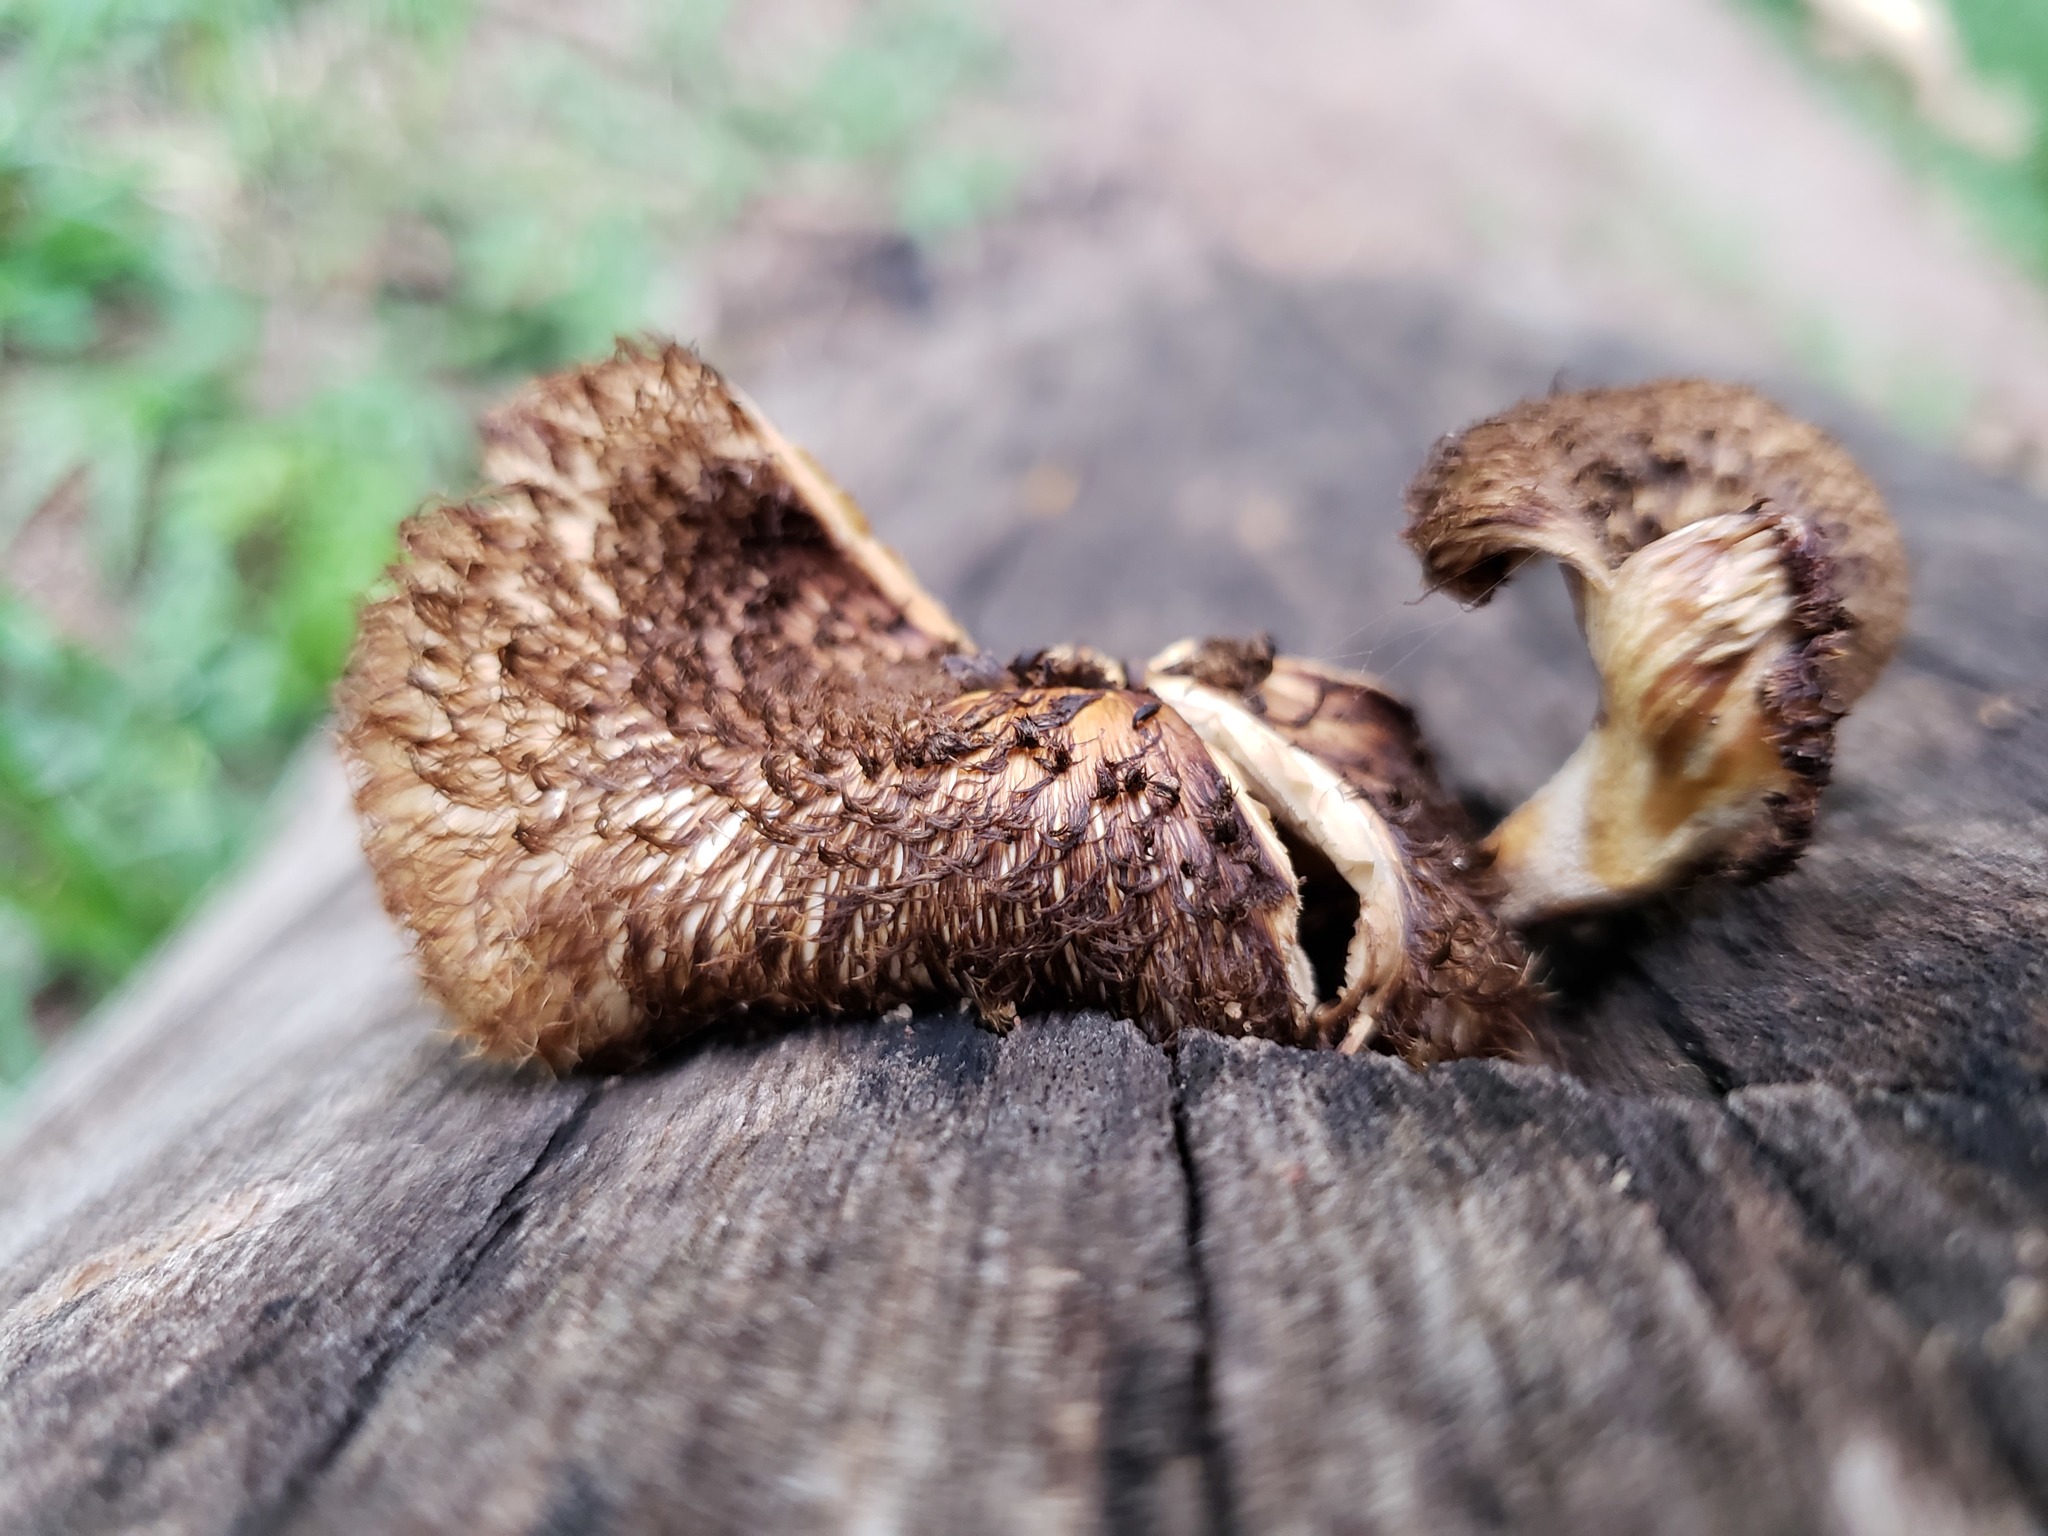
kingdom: Fungi
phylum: Basidiomycota
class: Agaricomycetes
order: Polyporales
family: Polyporaceae
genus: Lentinus
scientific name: Lentinus crinitus
